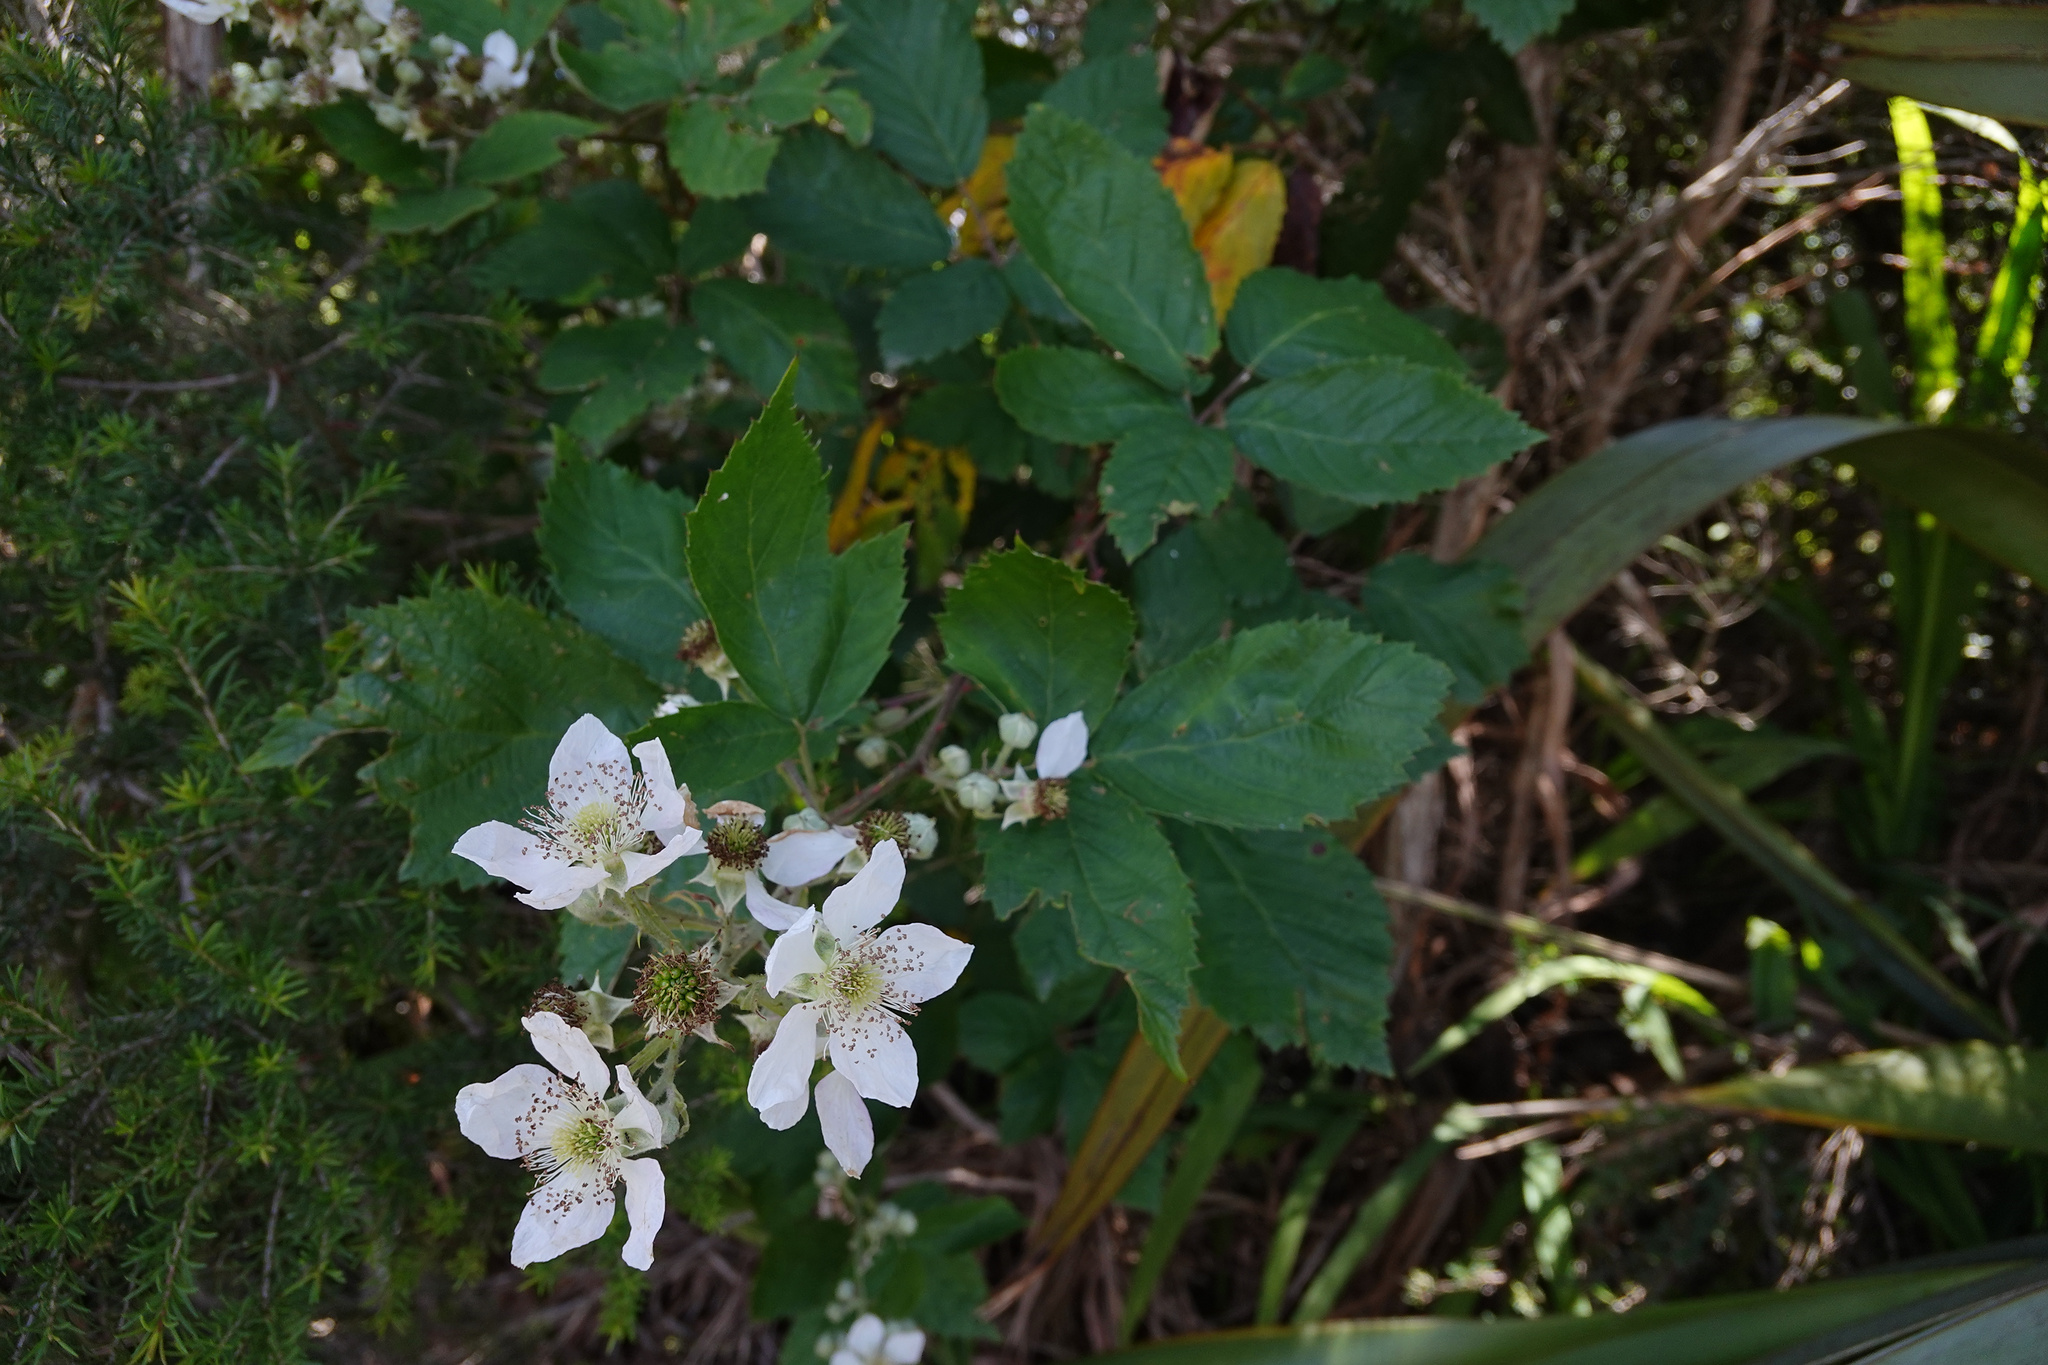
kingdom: Plantae
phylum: Tracheophyta
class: Magnoliopsida
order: Rosales
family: Rosaceae
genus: Rubus
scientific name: Rubus
